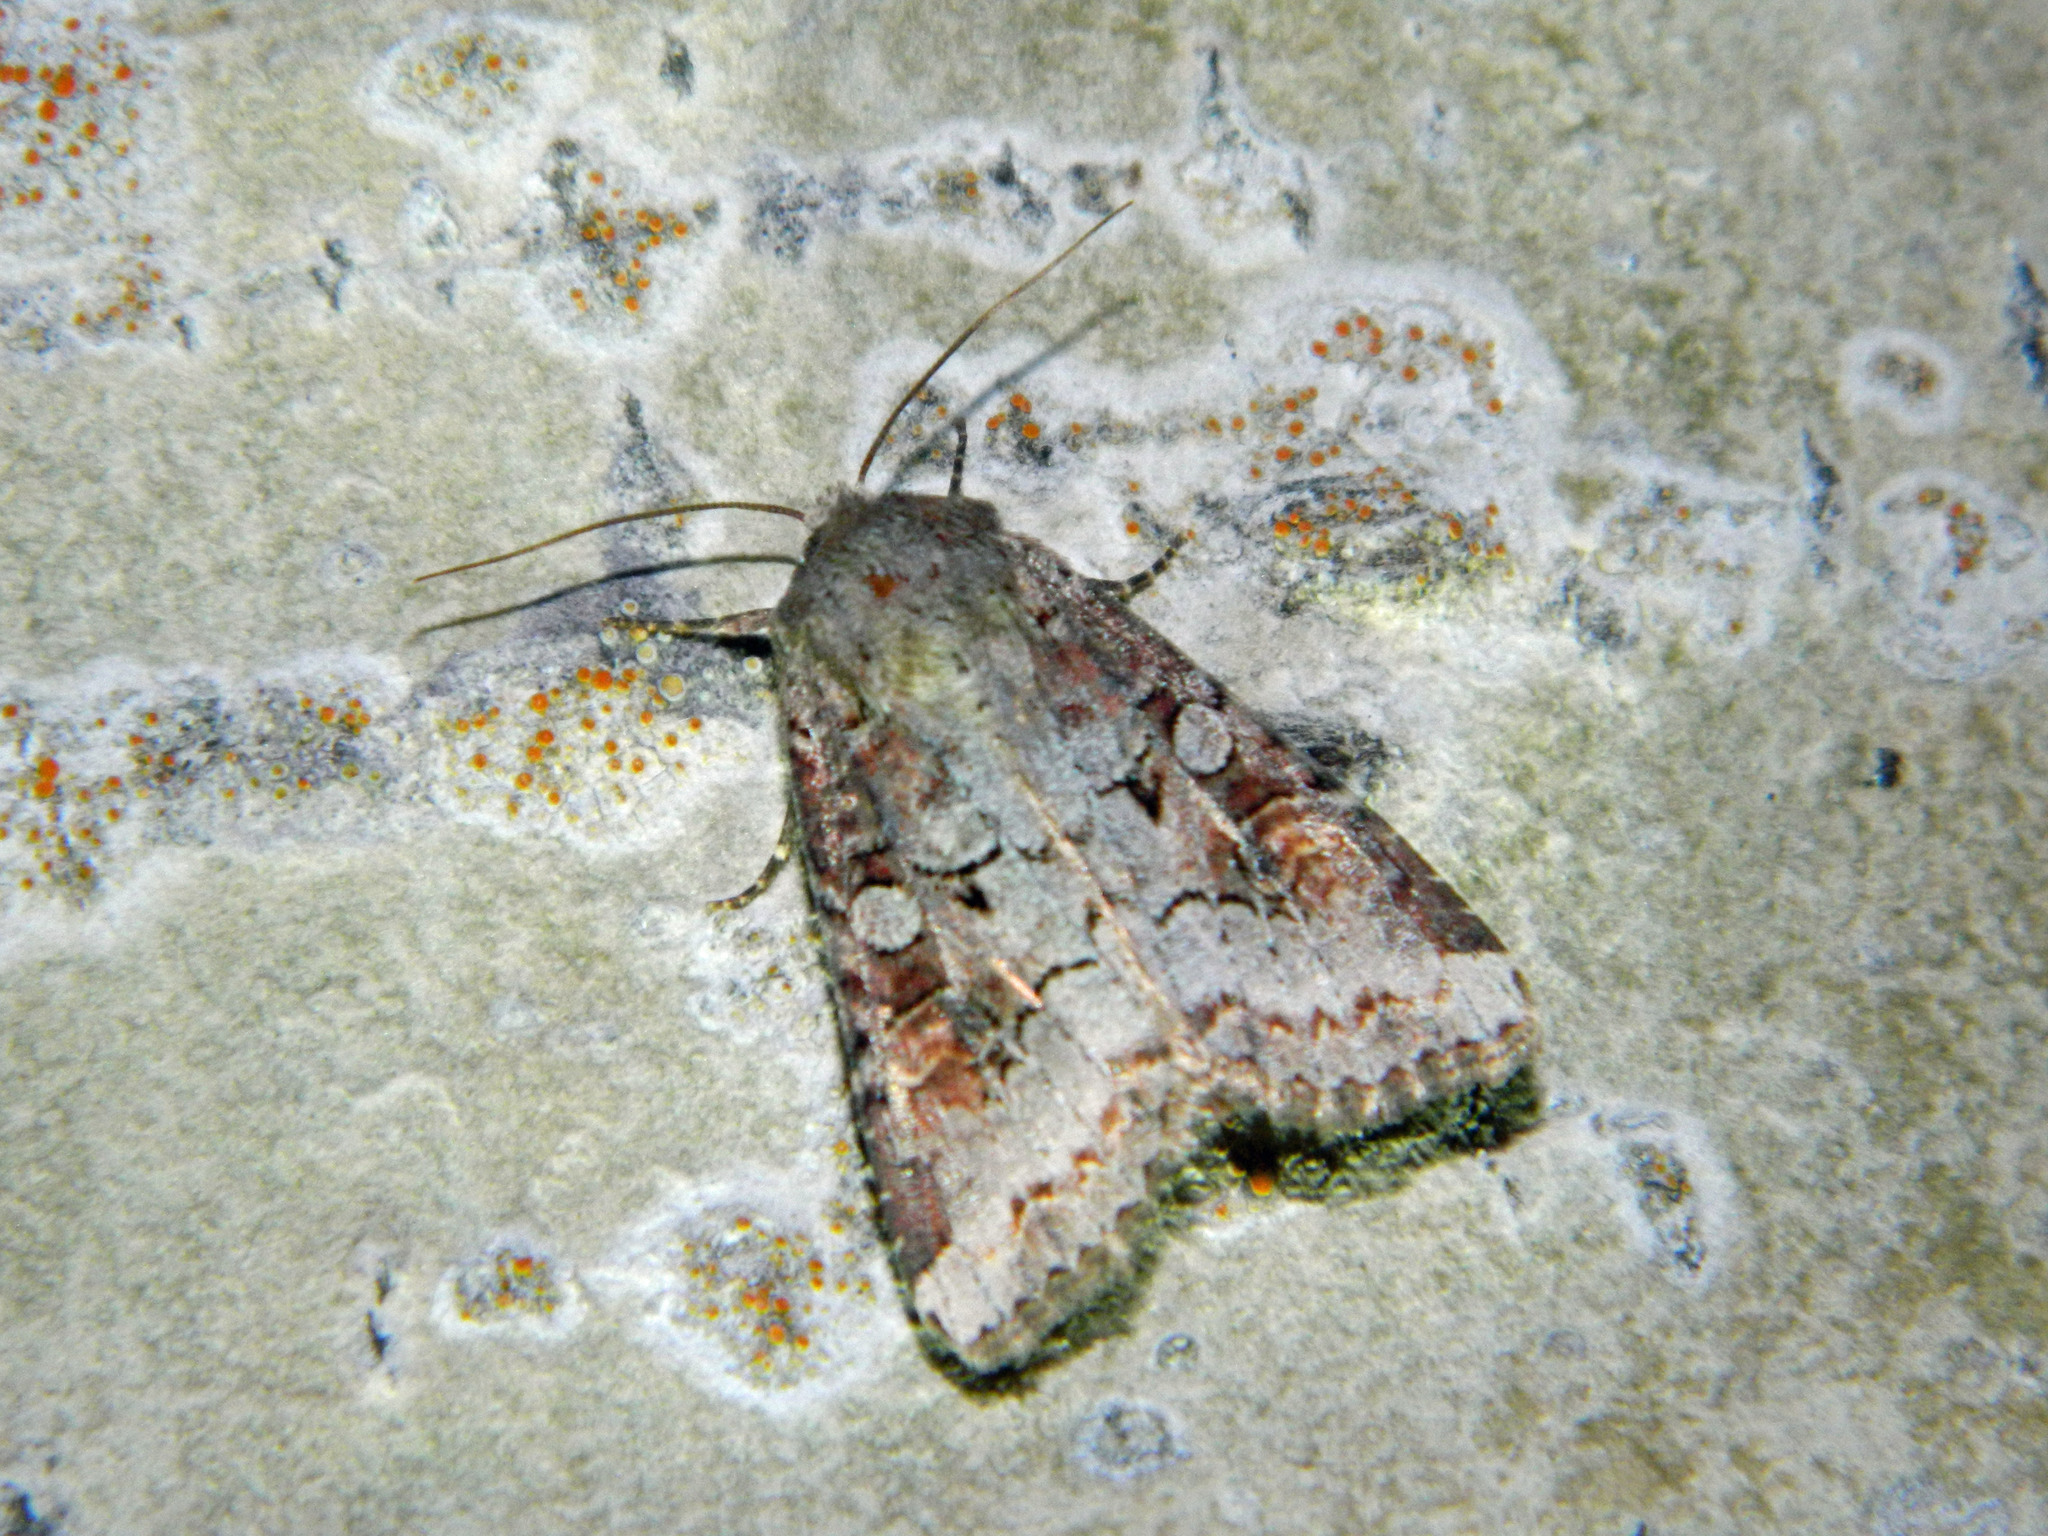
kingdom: Animalia
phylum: Arthropoda
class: Insecta
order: Lepidoptera
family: Noctuidae
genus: Trichordestra
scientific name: Trichordestra legitima
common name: Striped garden caterpillar
